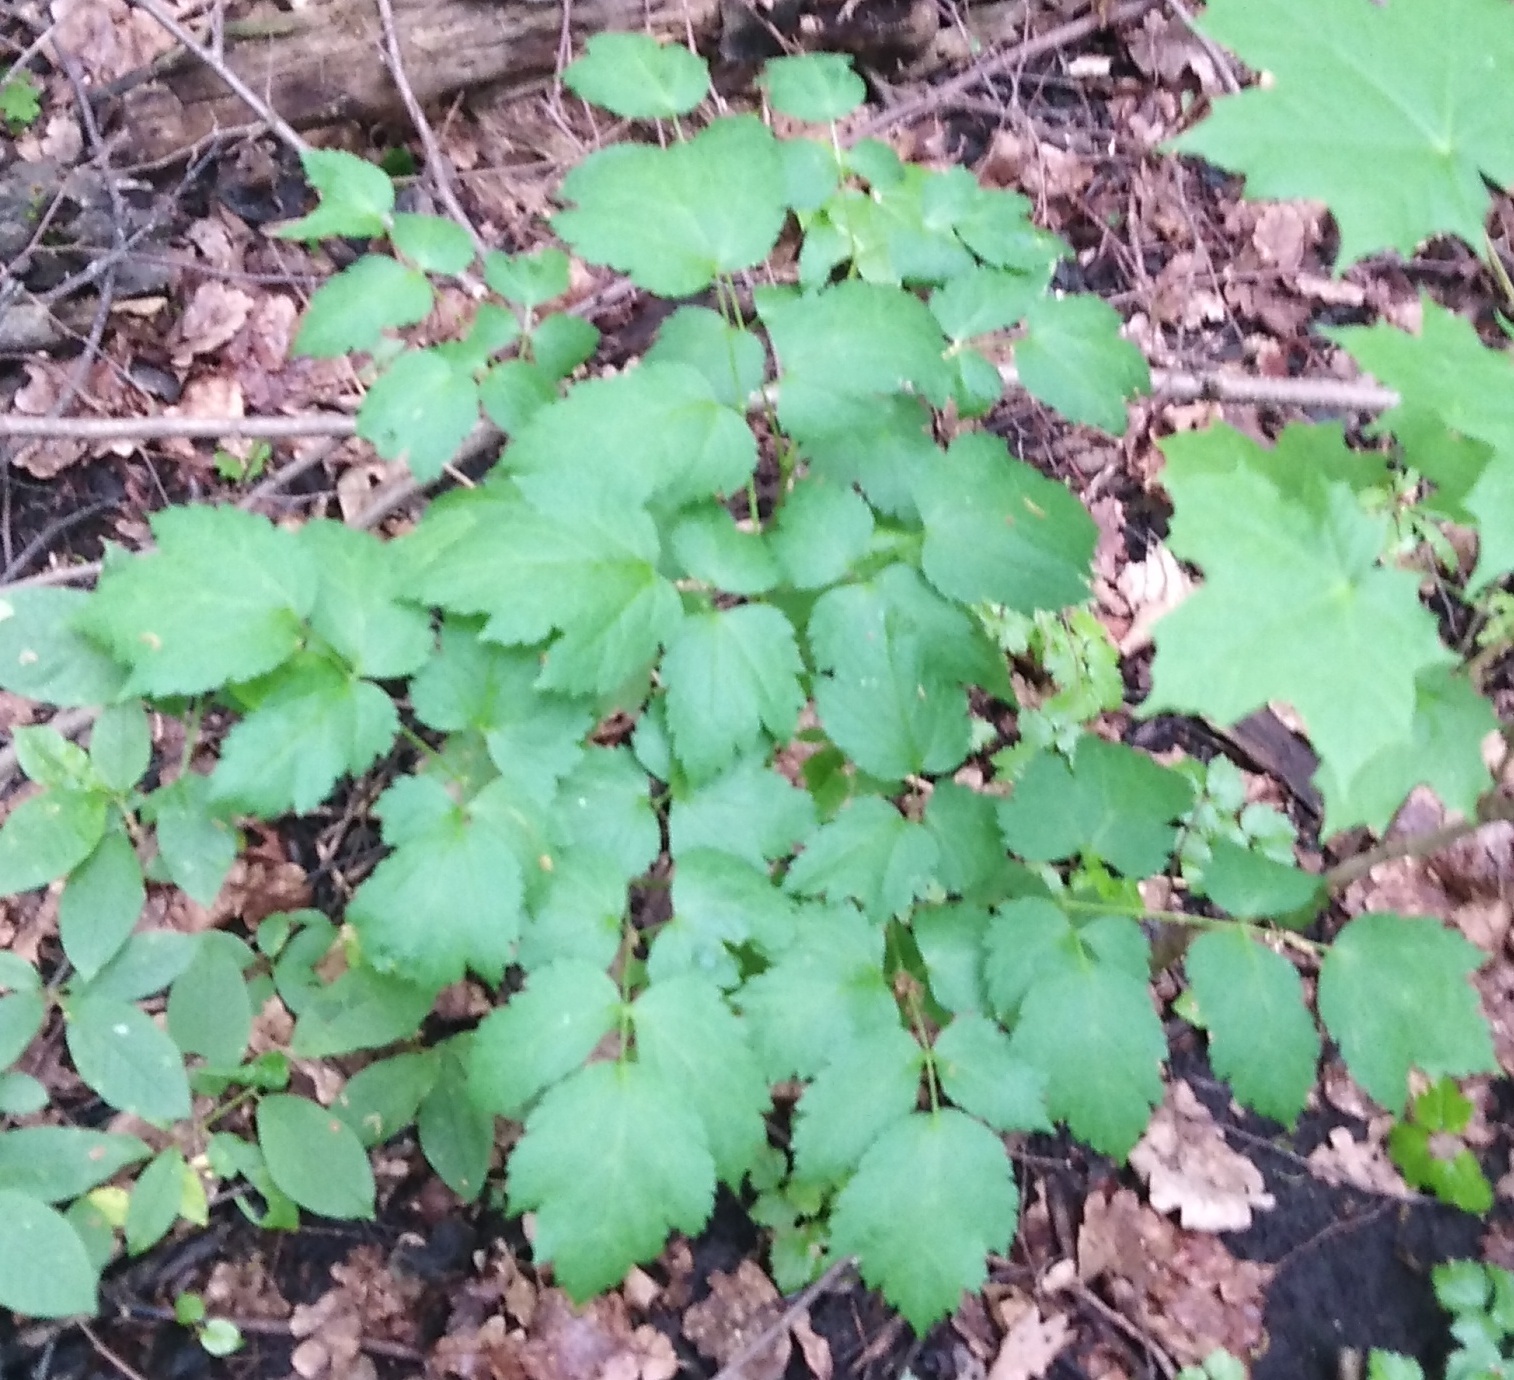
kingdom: Plantae
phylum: Tracheophyta
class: Magnoliopsida
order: Ranunculales
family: Ranunculaceae
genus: Actaea
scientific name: Actaea spicata
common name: Baneberry
